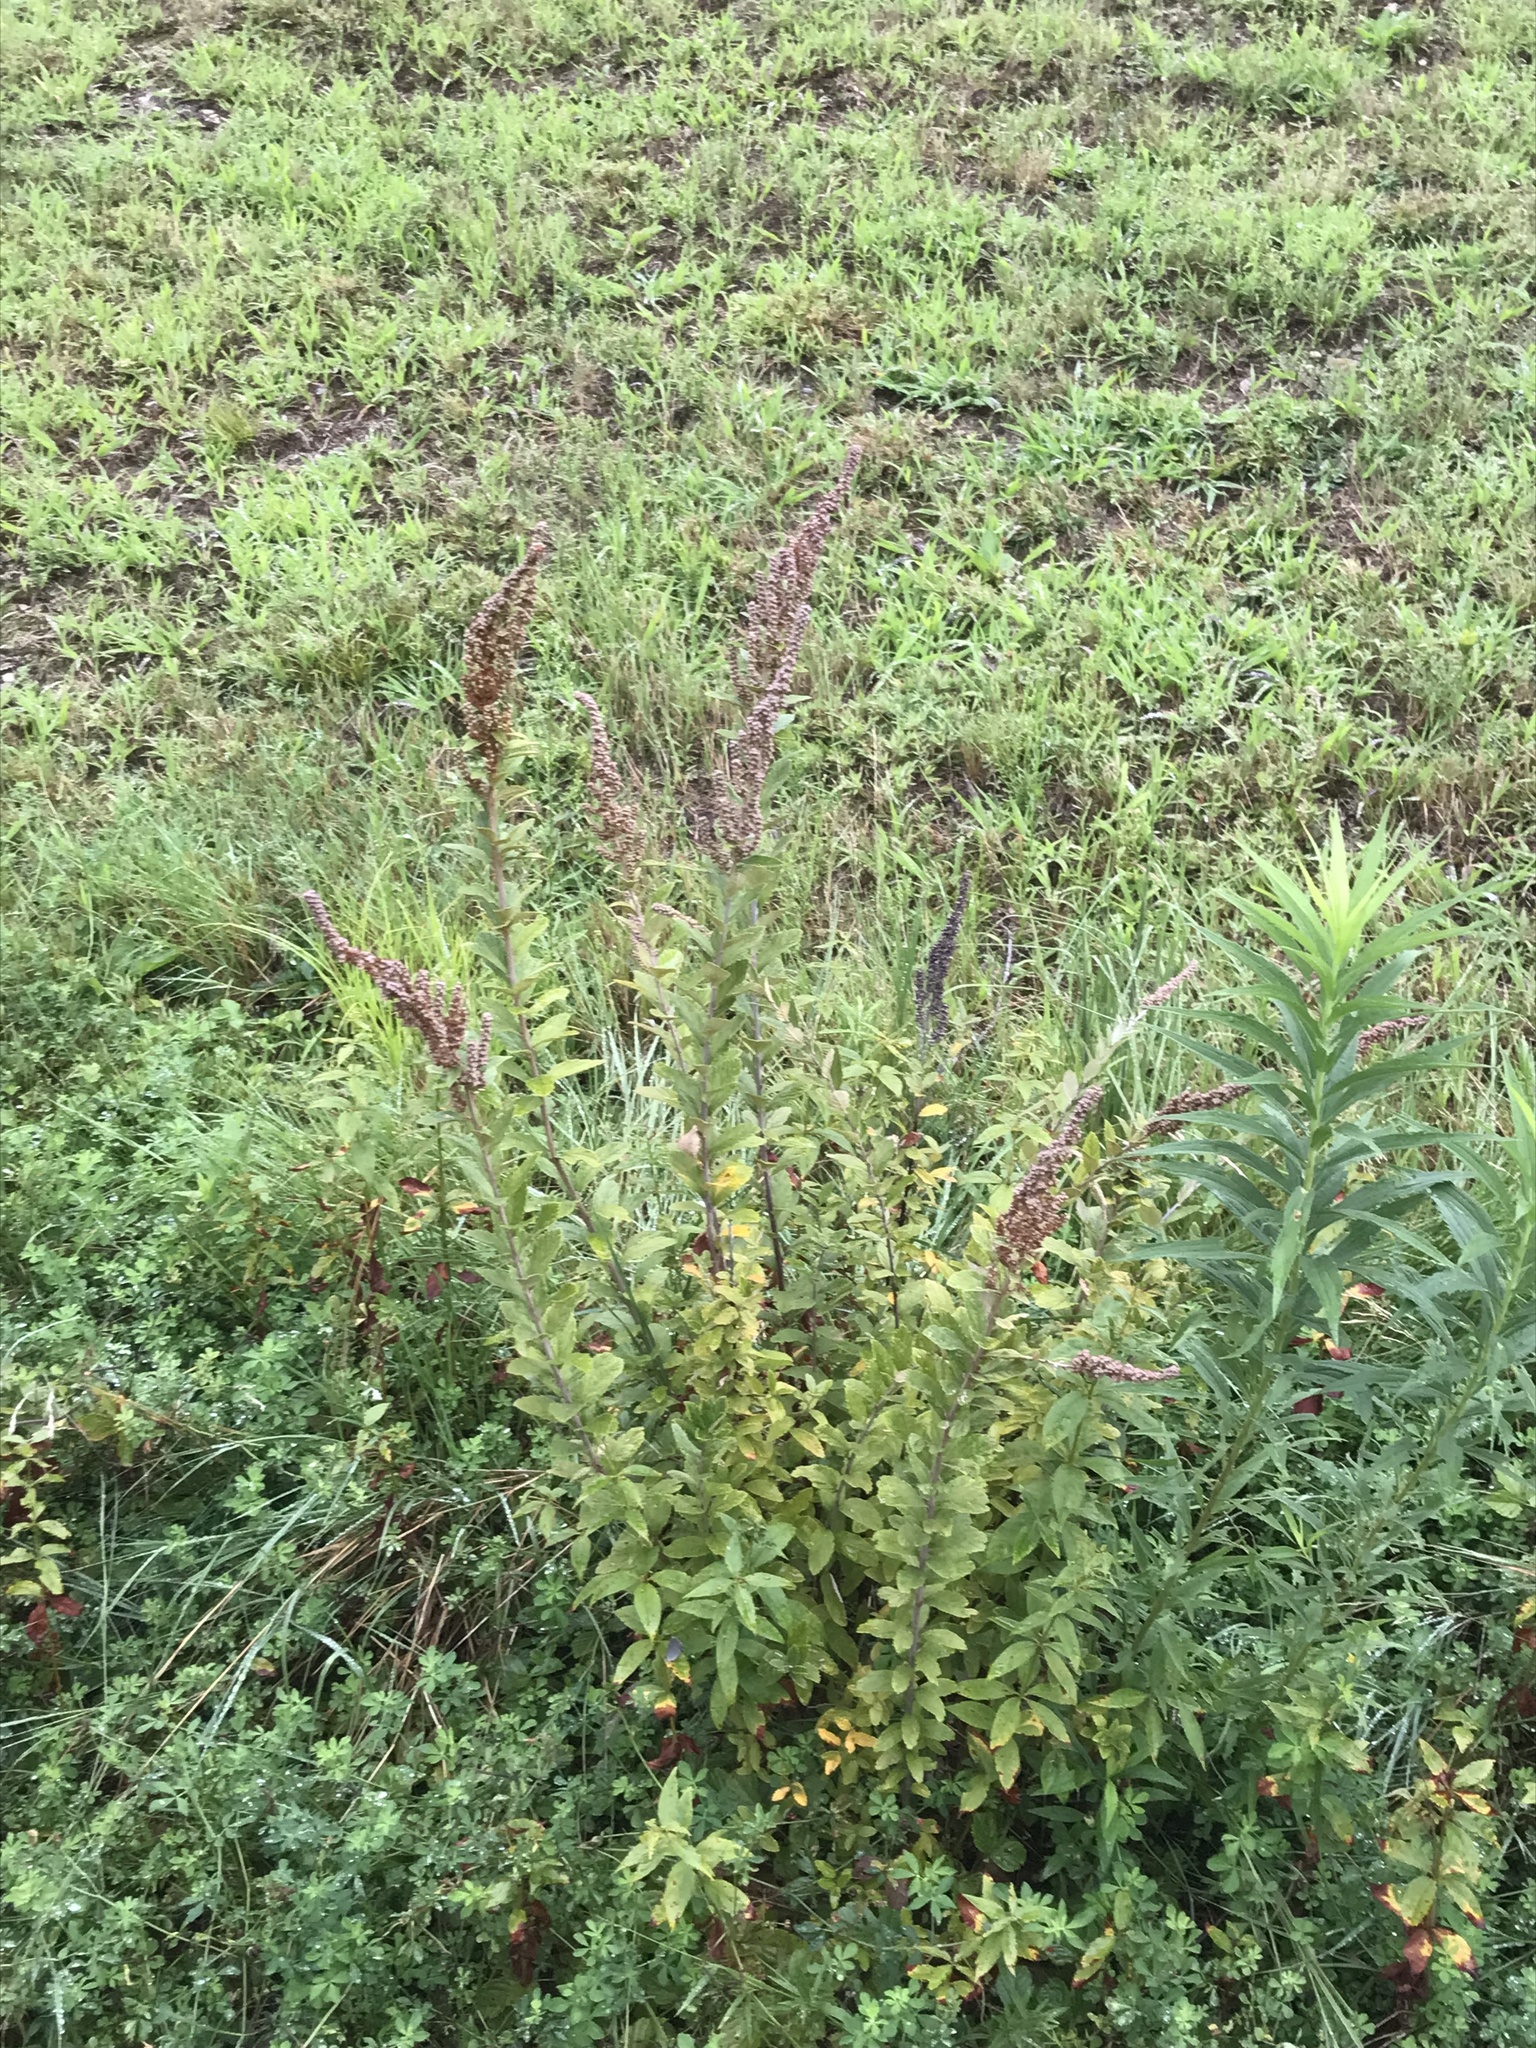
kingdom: Plantae
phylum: Tracheophyta
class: Magnoliopsida
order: Rosales
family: Rosaceae
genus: Spiraea
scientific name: Spiraea tomentosa
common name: Hardhack
